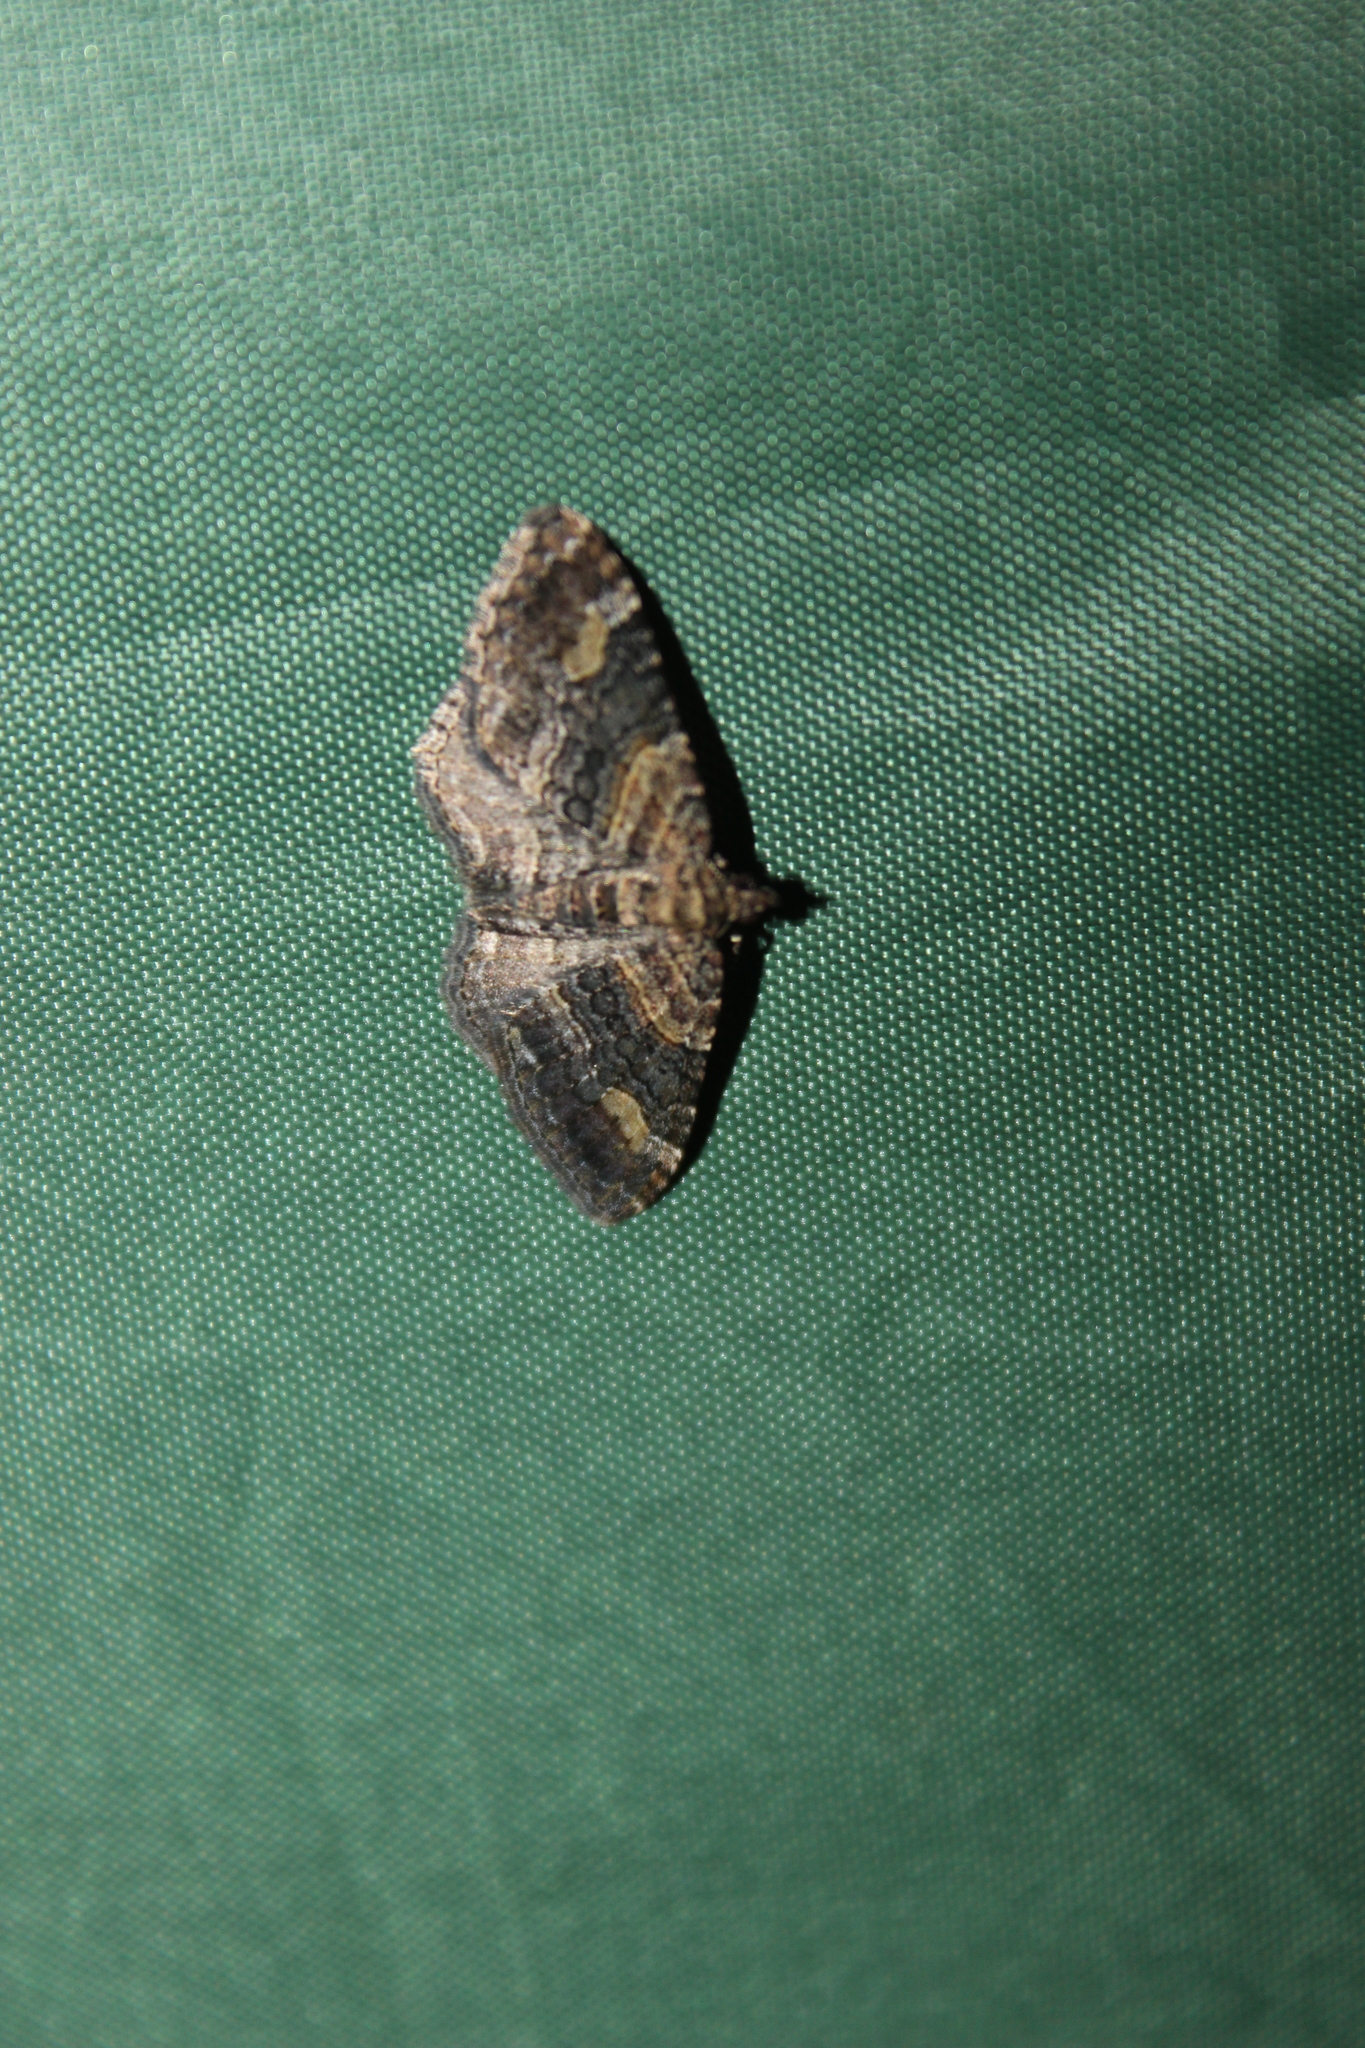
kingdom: Animalia
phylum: Arthropoda
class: Insecta
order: Lepidoptera
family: Geometridae
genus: Epyaxa
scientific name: Epyaxa lucidata
